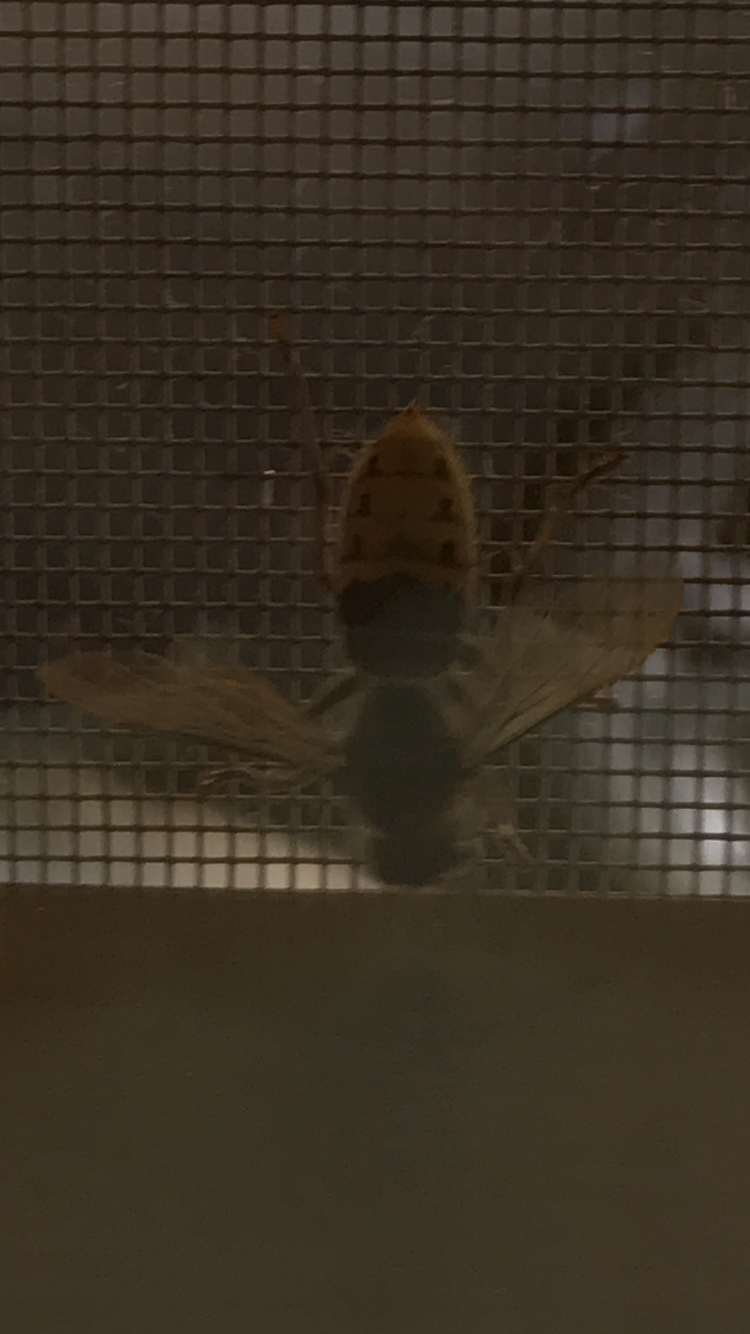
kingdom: Animalia
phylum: Arthropoda
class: Insecta
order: Hymenoptera
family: Vespidae
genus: Vespa
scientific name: Vespa crabro
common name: Hornet
